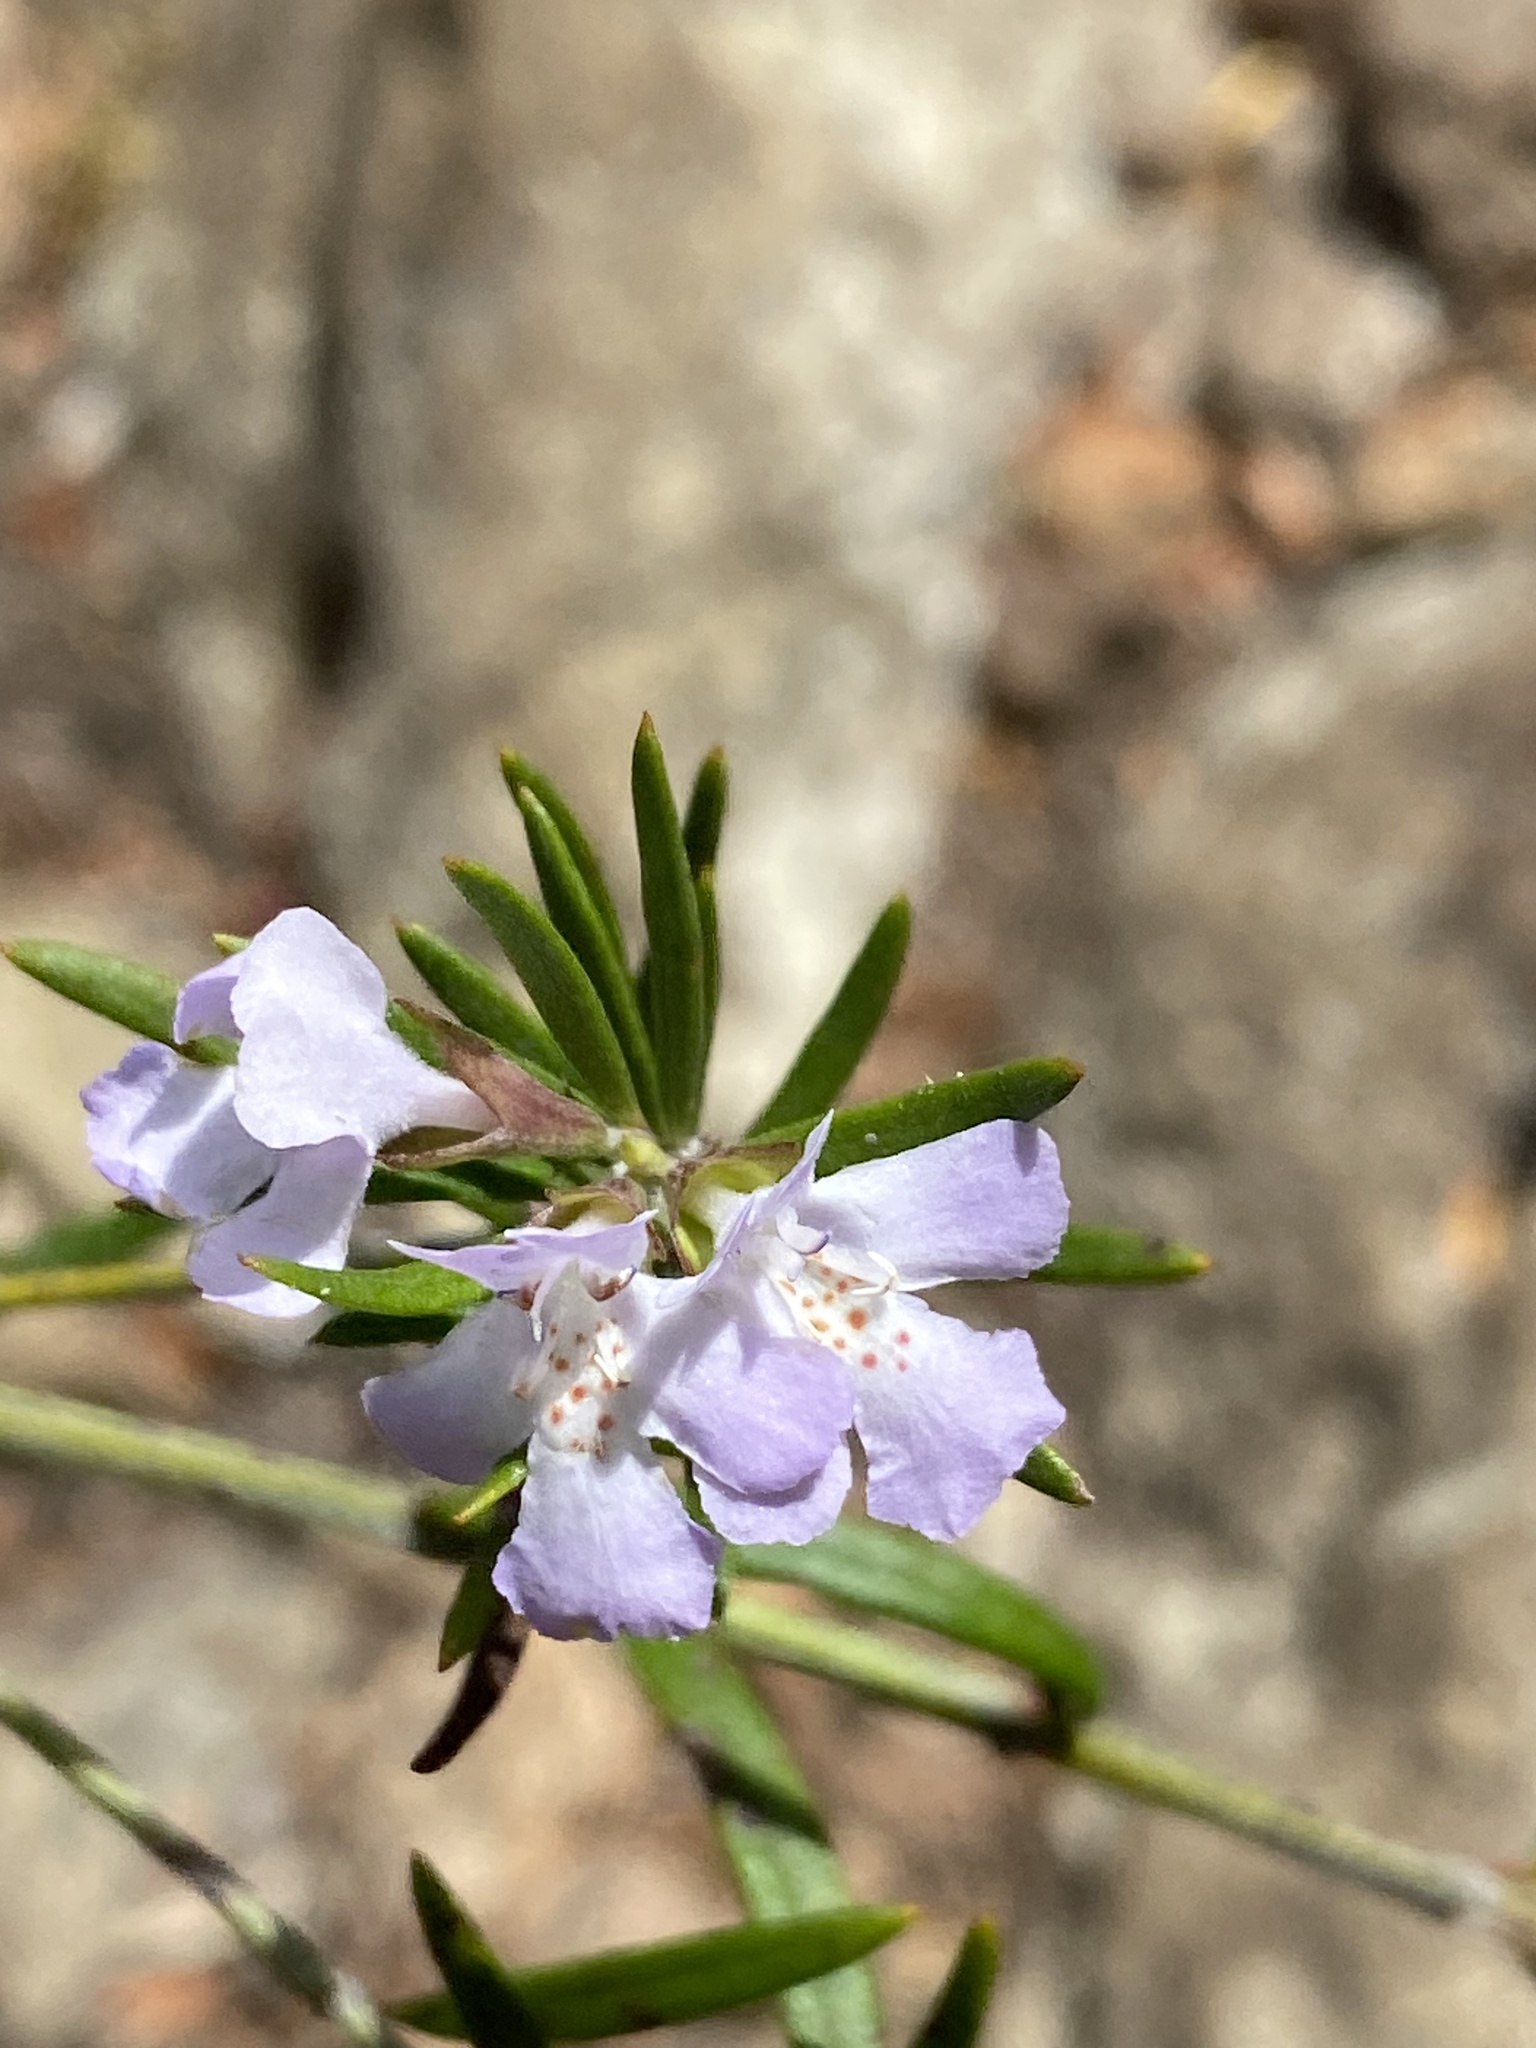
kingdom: Plantae
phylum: Tracheophyta
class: Magnoliopsida
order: Lamiales
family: Lamiaceae
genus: Westringia
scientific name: Westringia eremicola
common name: Slender western-rosemary
